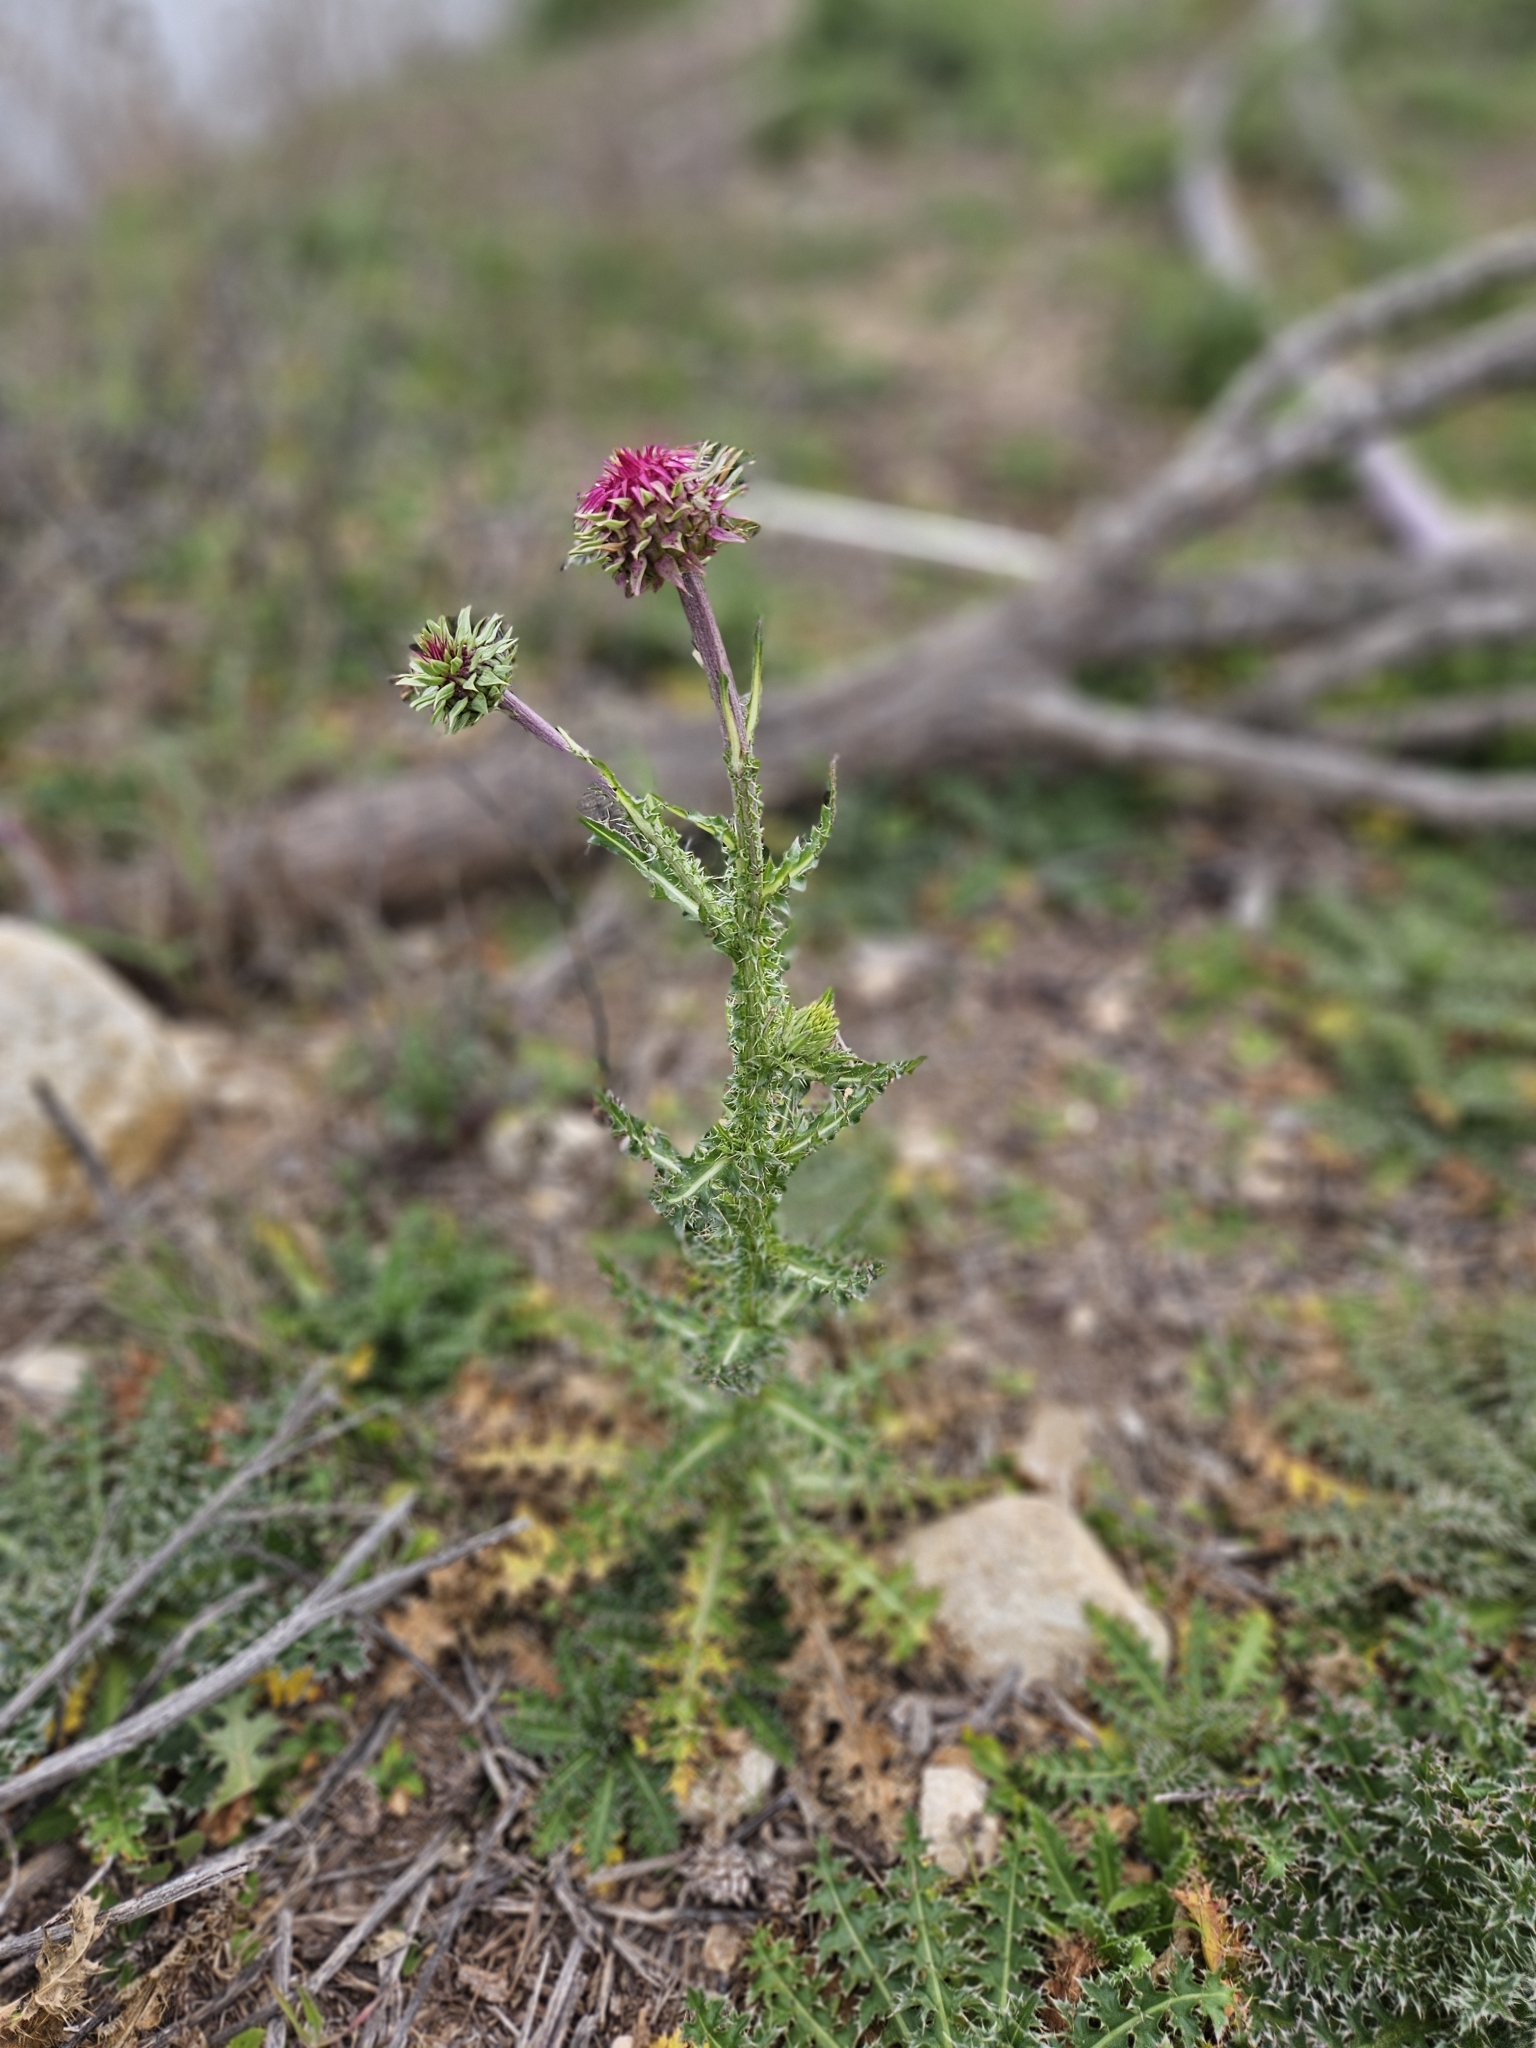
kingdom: Plantae
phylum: Tracheophyta
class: Magnoliopsida
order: Asterales
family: Asteraceae
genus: Carduus
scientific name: Carduus nutans
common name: Musk thistle
